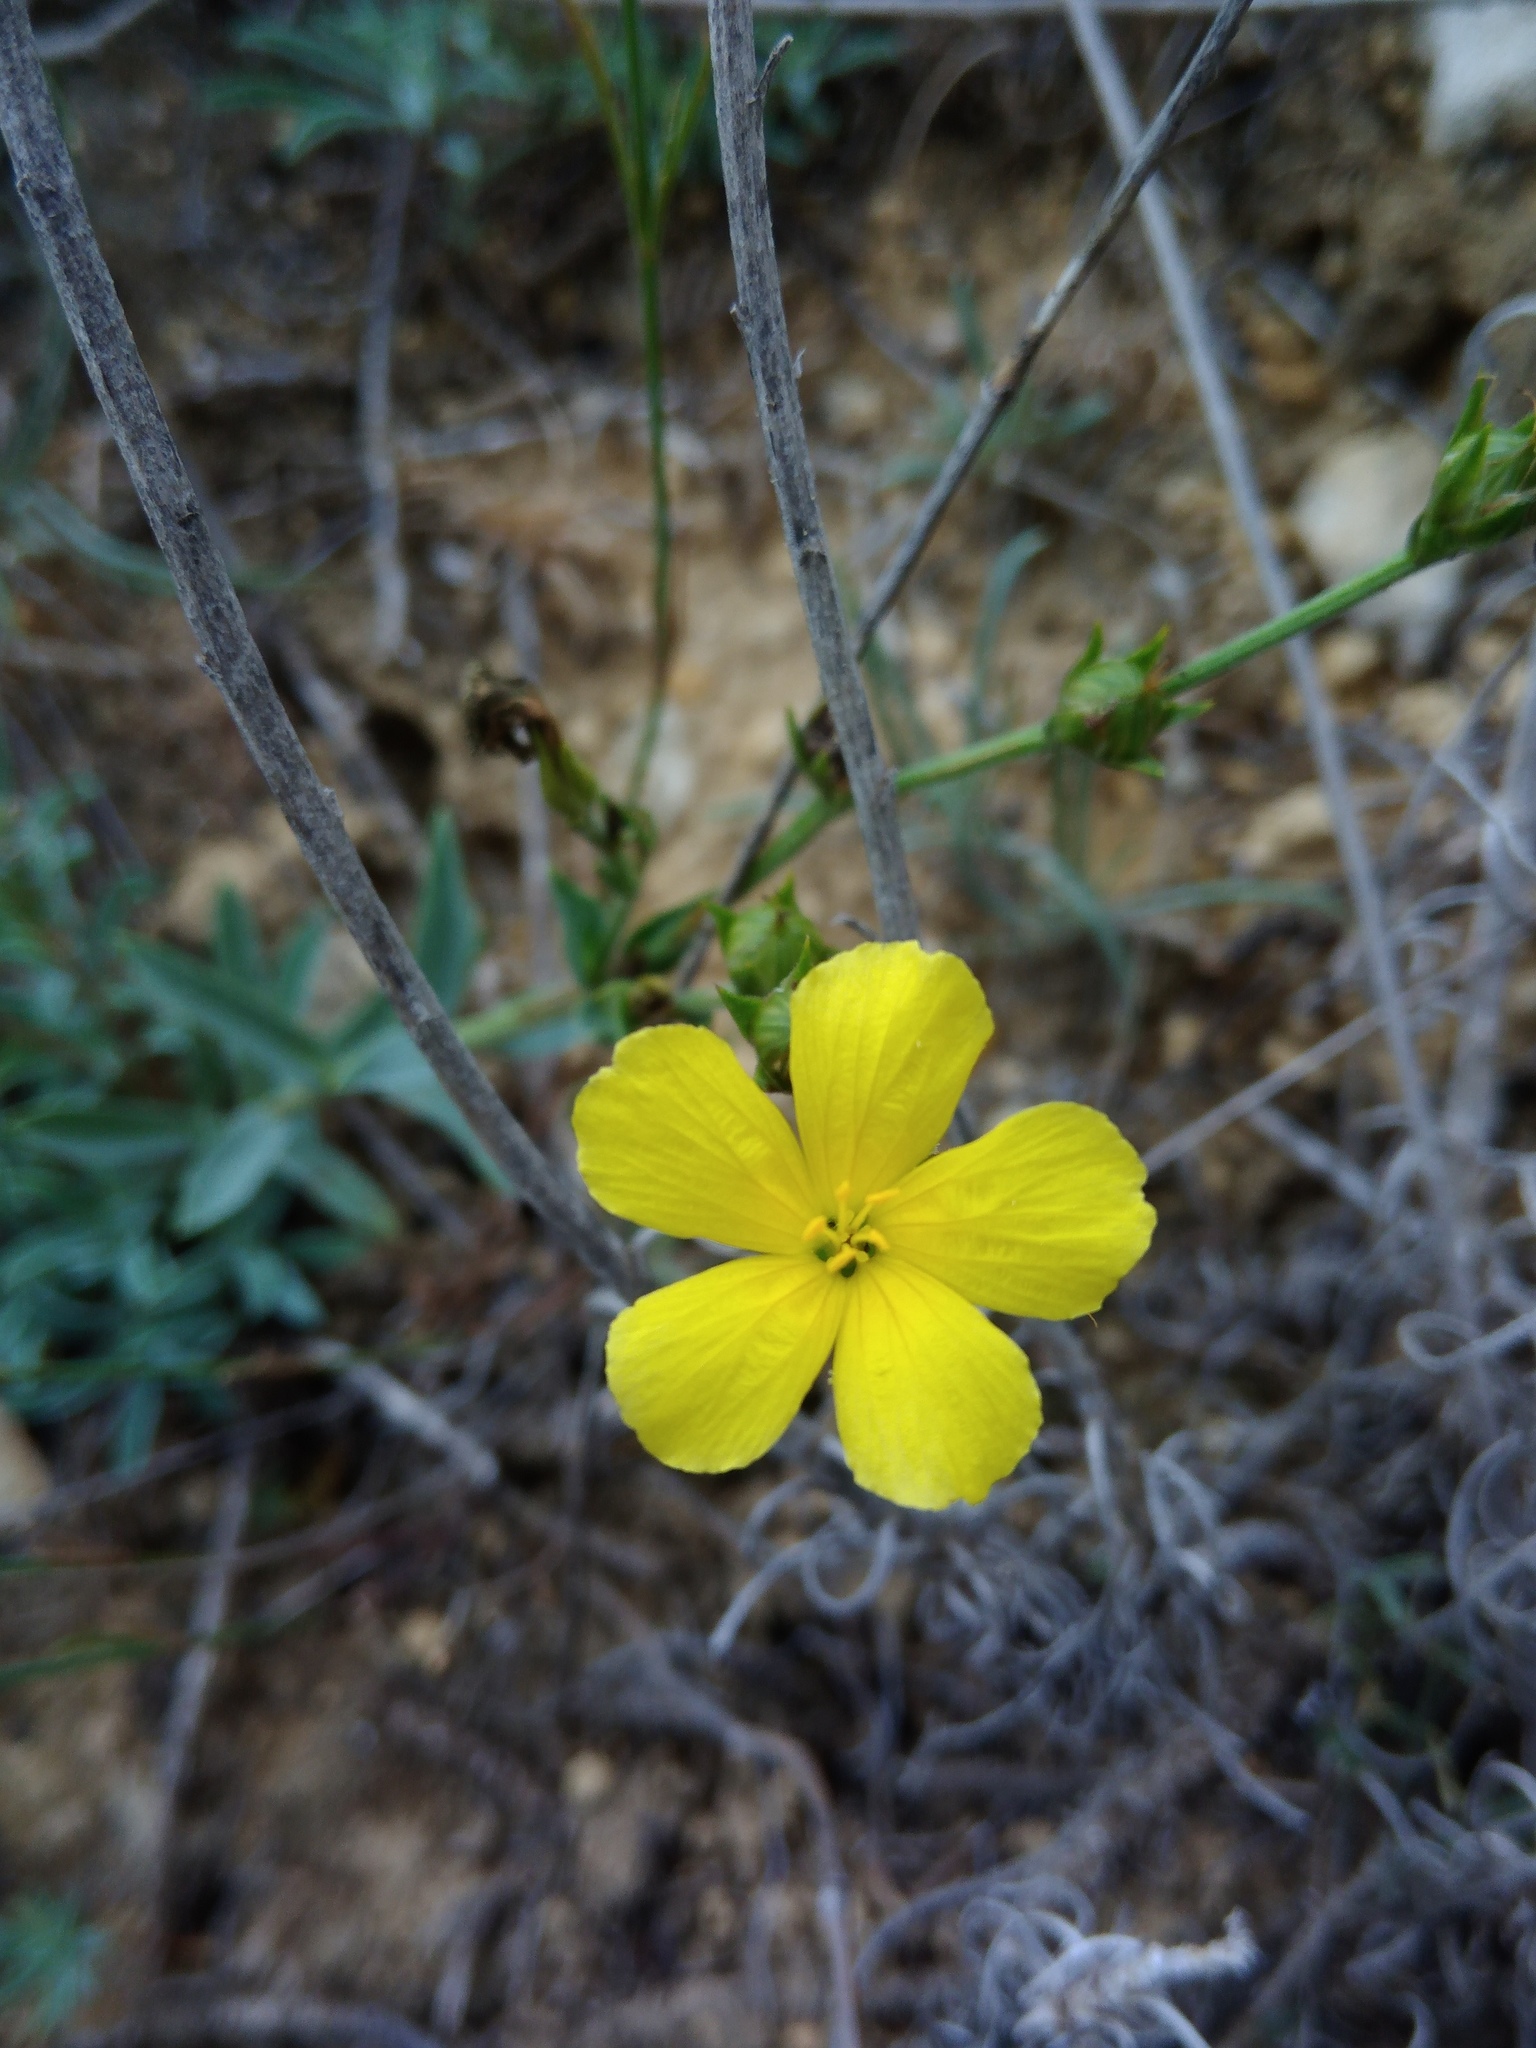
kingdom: Plantae
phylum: Tracheophyta
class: Magnoliopsida
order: Malpighiales
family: Linaceae
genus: Linum
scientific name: Linum pallasianum
